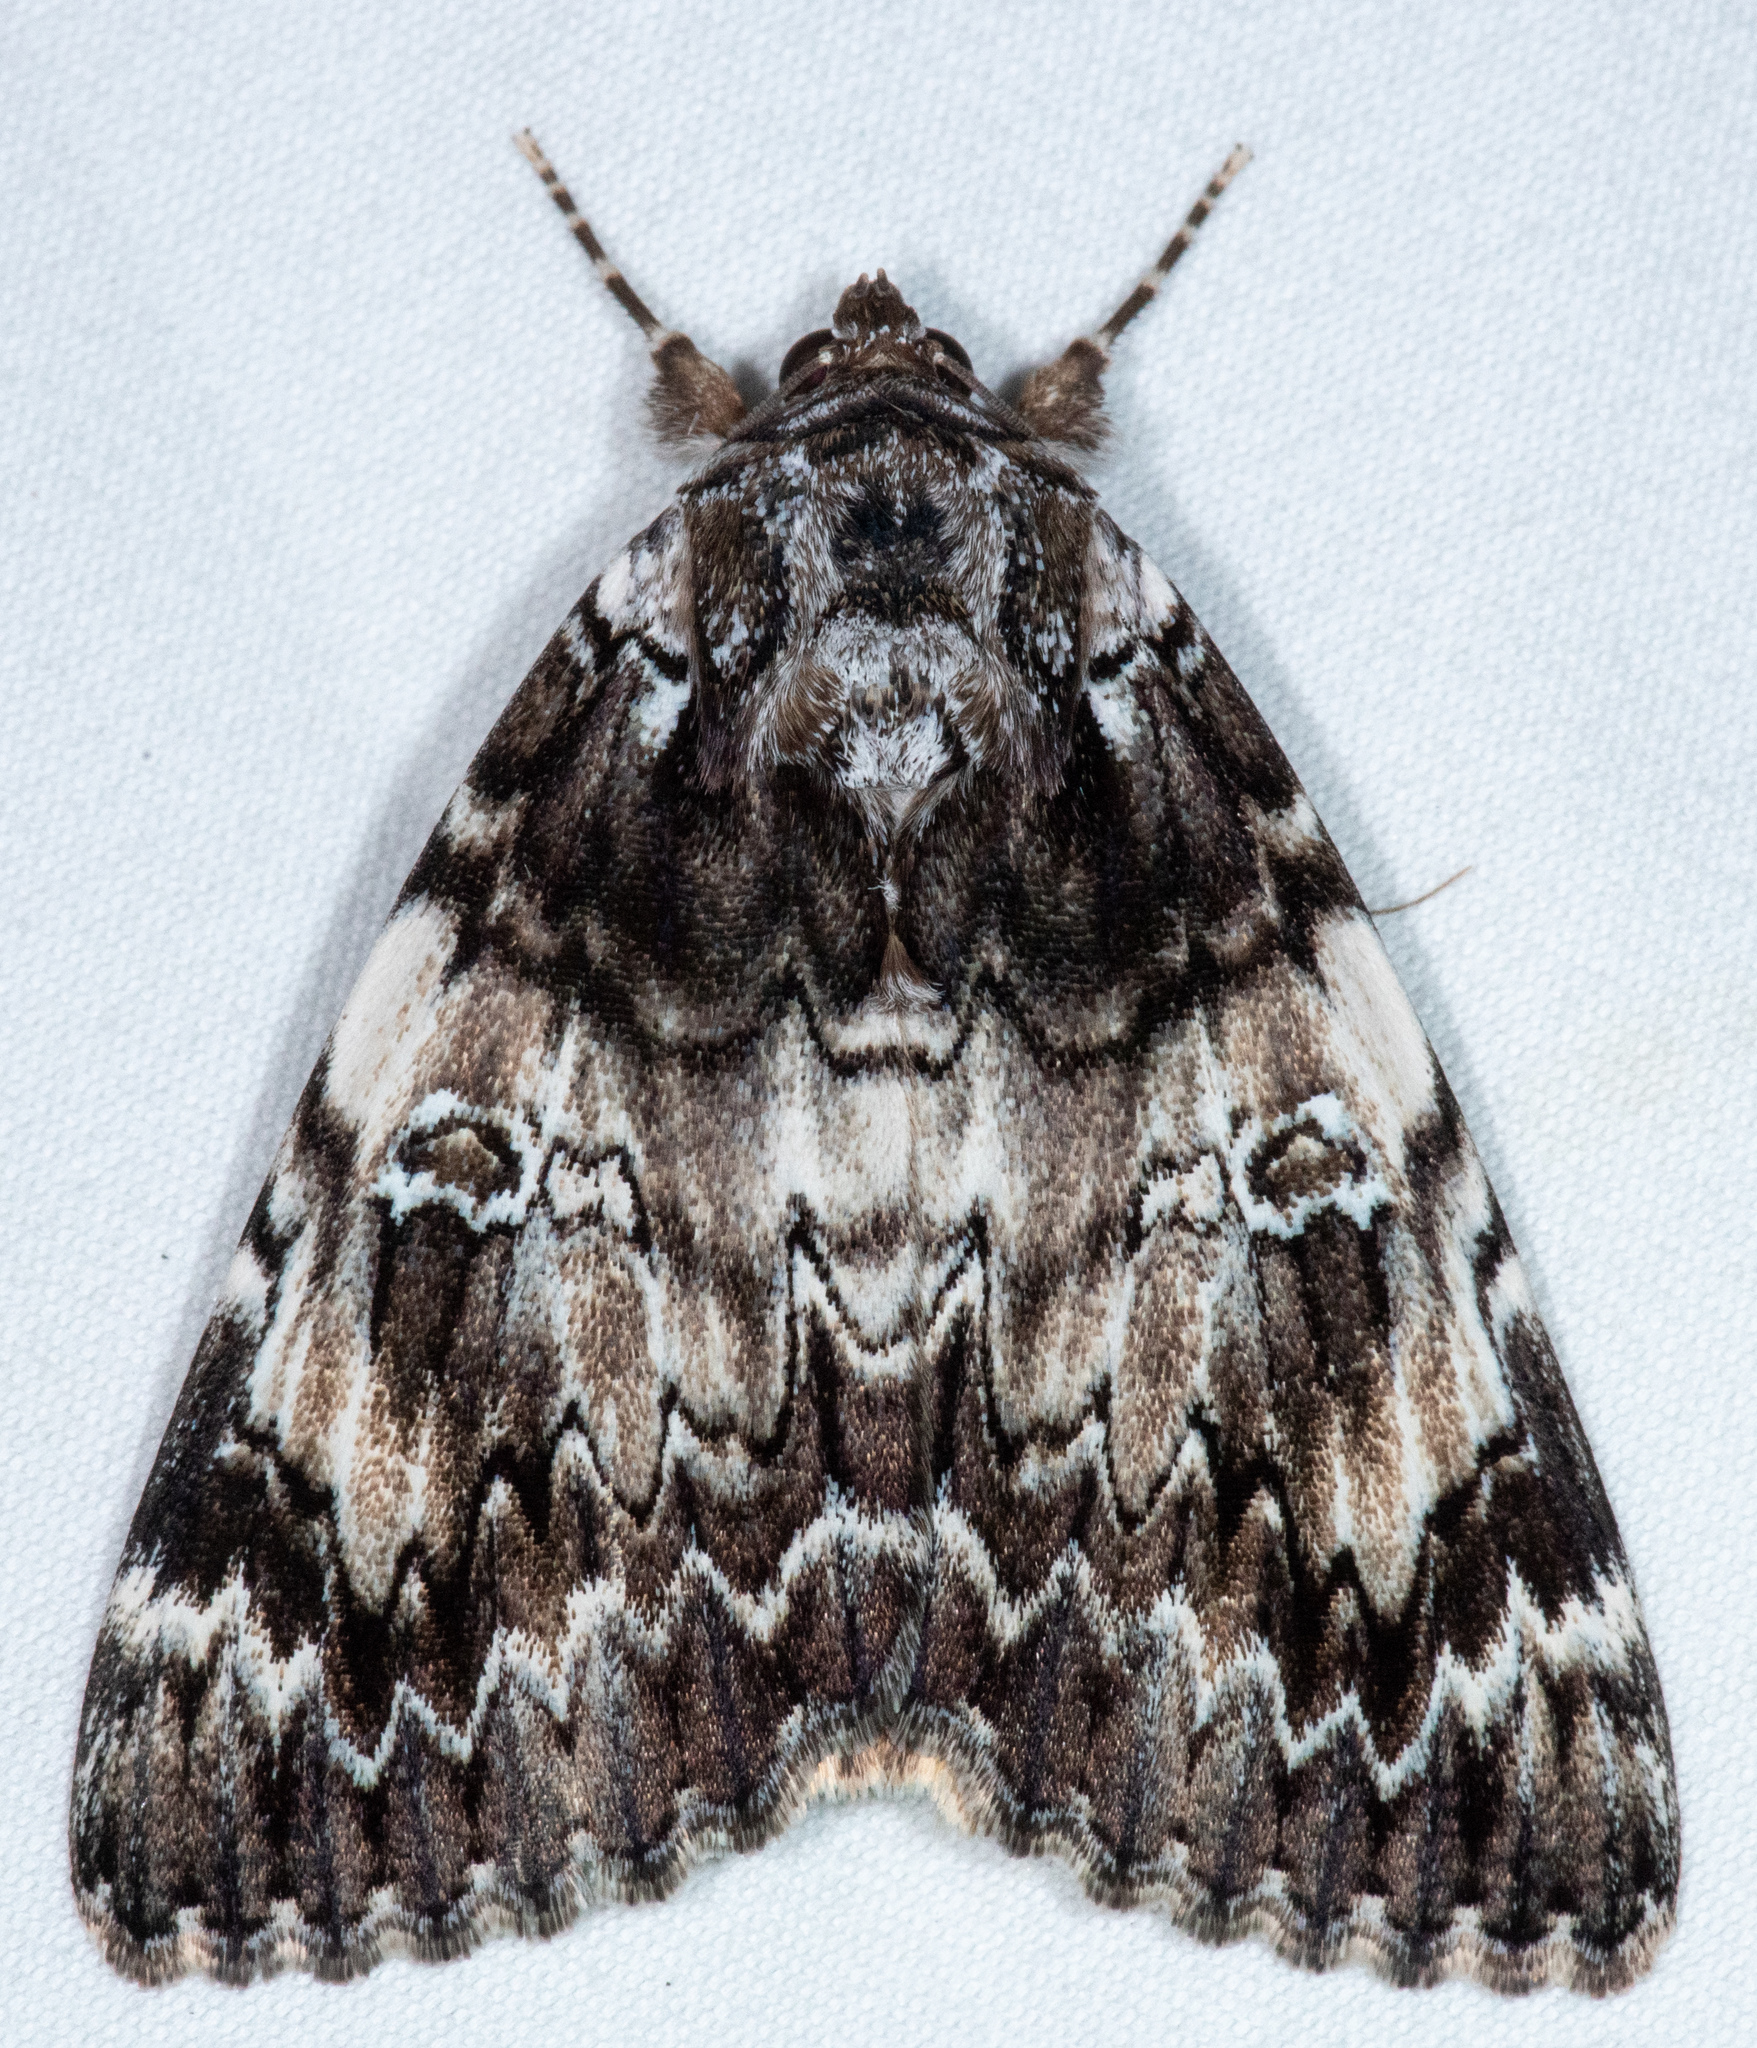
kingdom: Animalia
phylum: Arthropoda
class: Insecta
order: Lepidoptera
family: Erebidae
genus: Catocala
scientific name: Catocala ilia
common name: Ilia underwing
